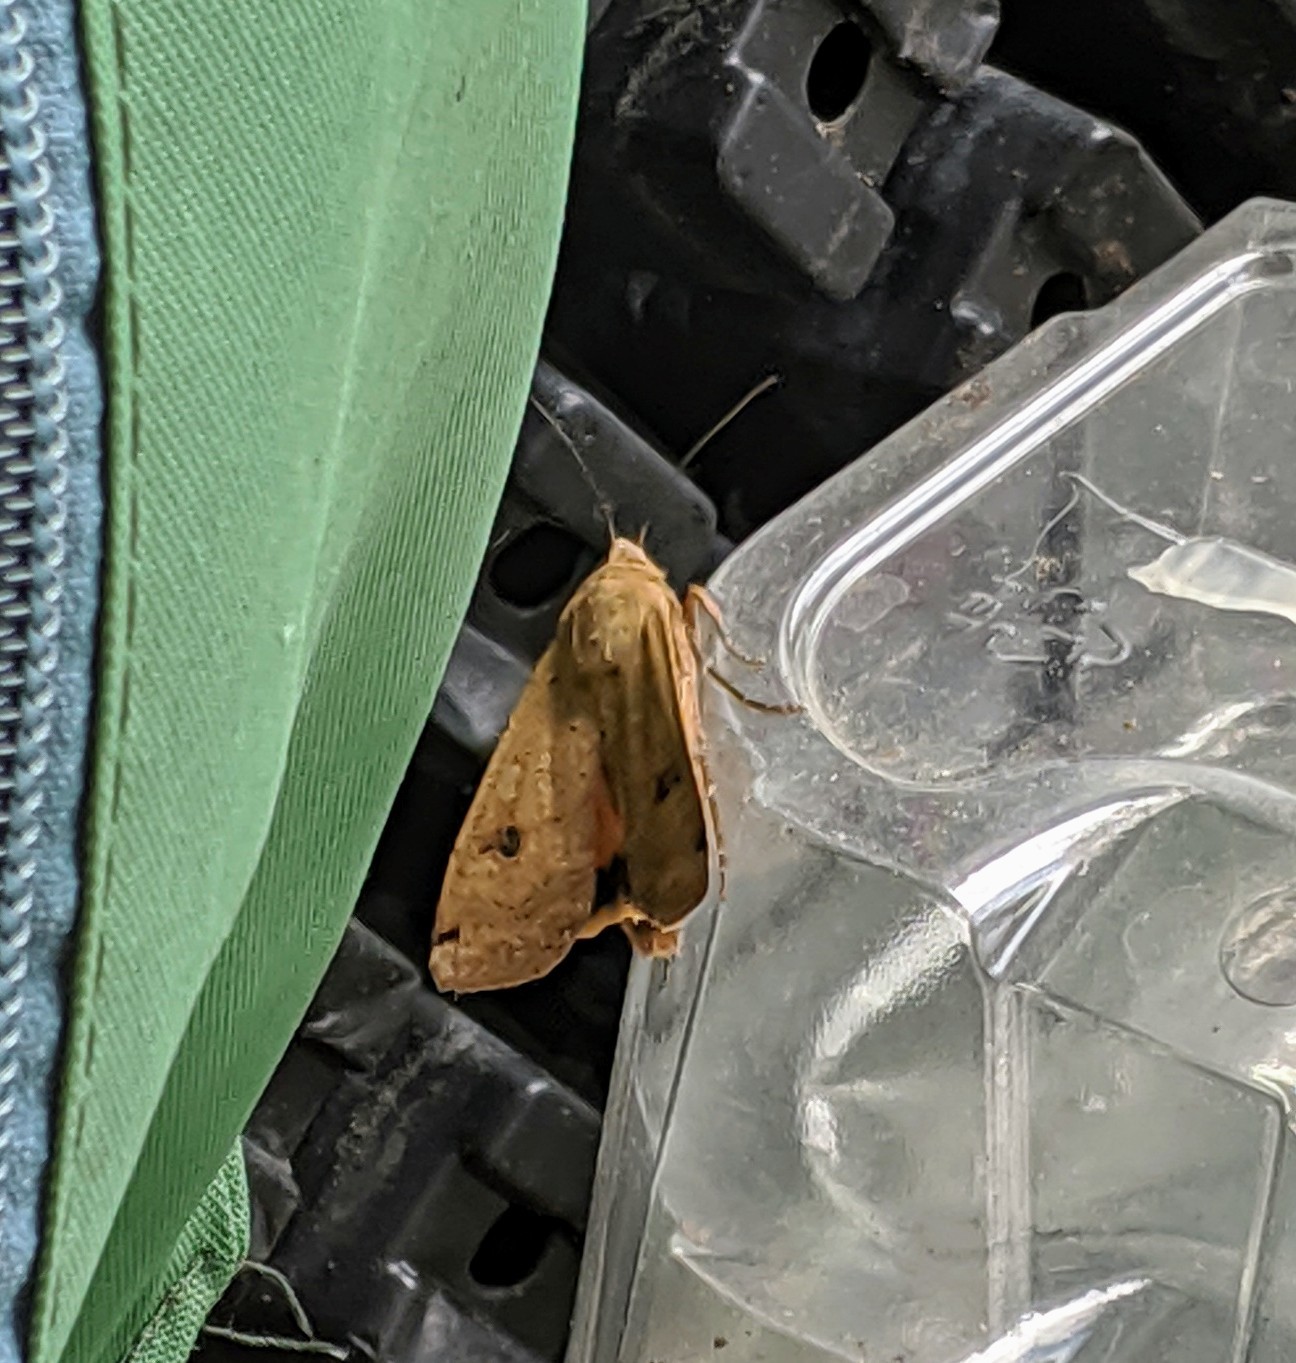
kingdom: Animalia
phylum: Arthropoda
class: Insecta
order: Lepidoptera
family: Noctuidae
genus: Noctua
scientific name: Noctua pronuba
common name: Large yellow underwing
